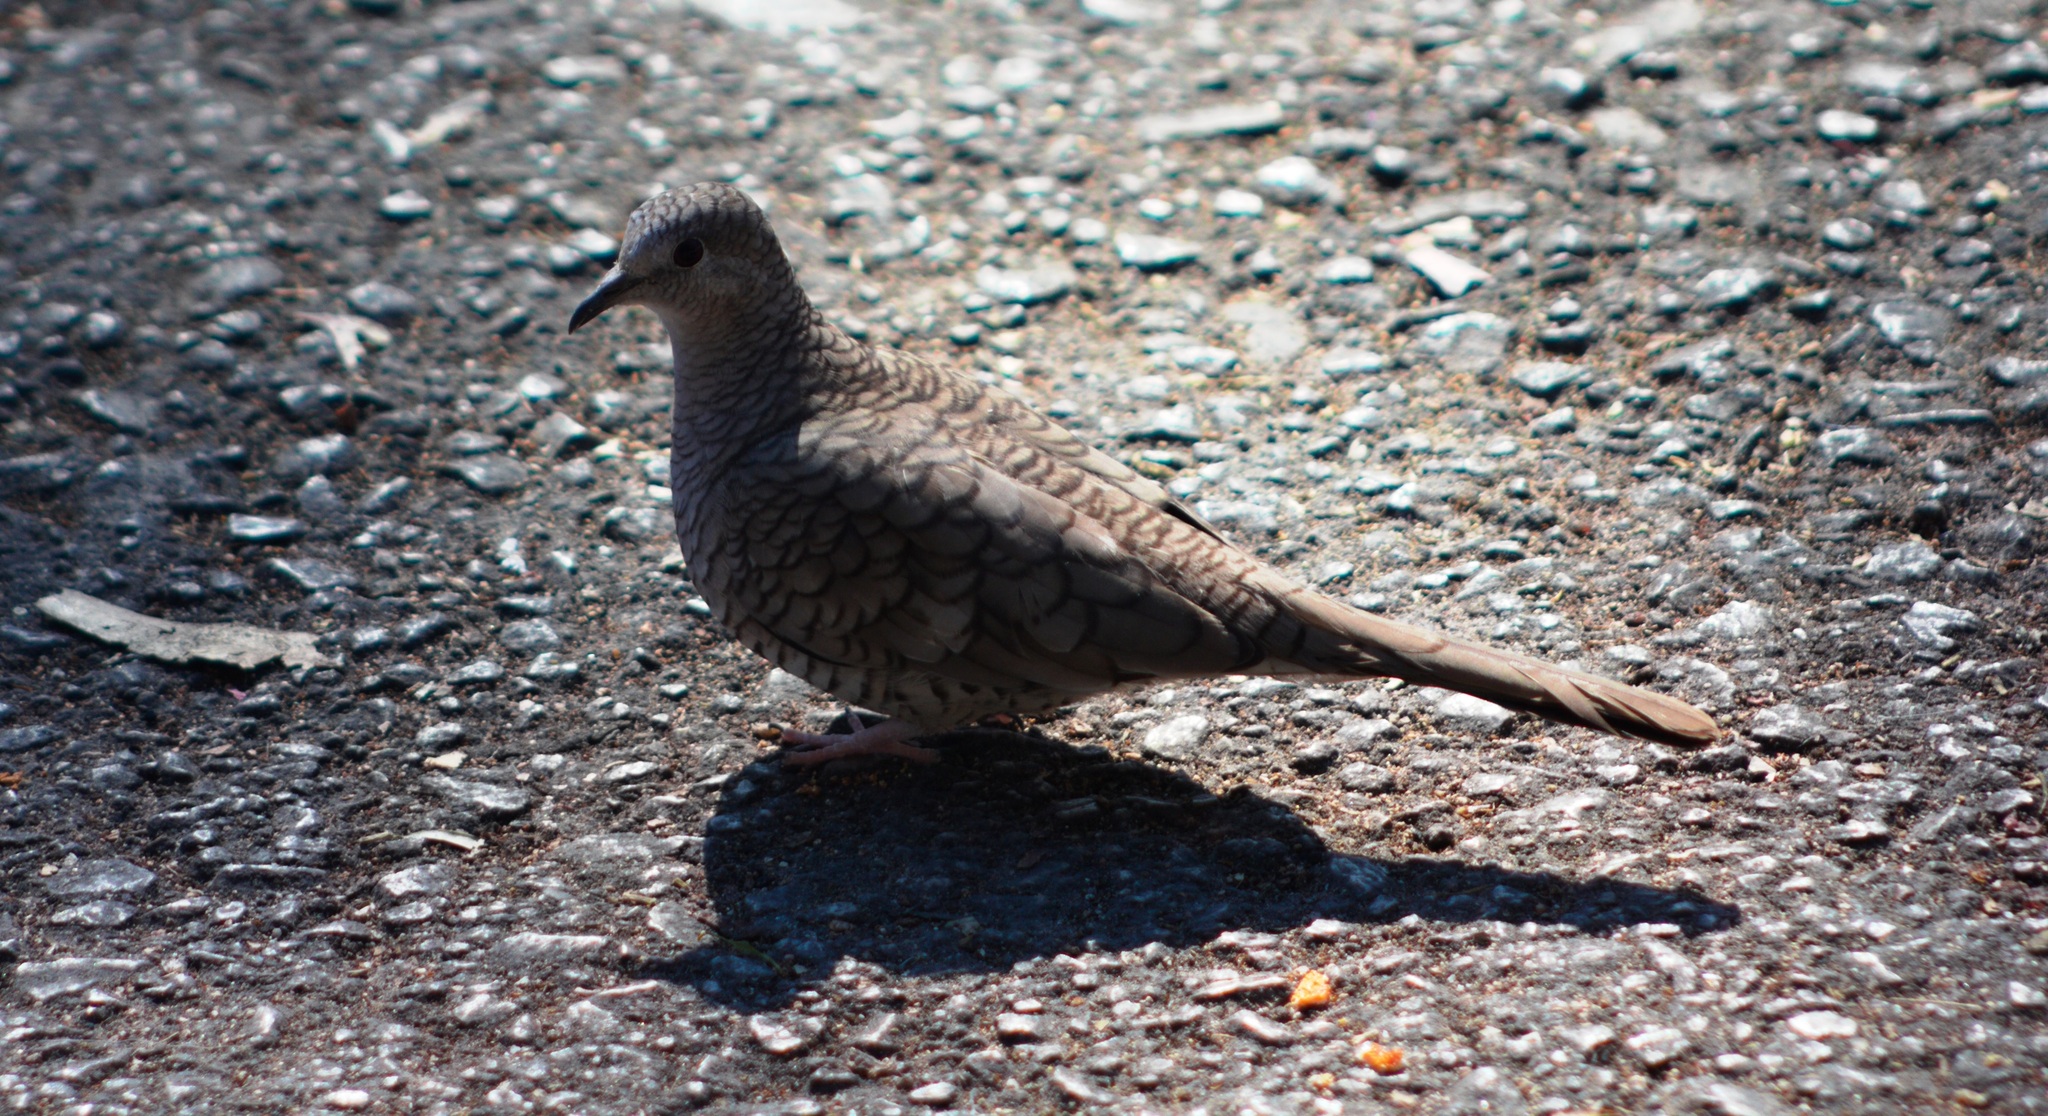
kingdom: Animalia
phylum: Chordata
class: Aves
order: Columbiformes
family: Columbidae
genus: Columbina
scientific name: Columbina inca
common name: Inca dove
